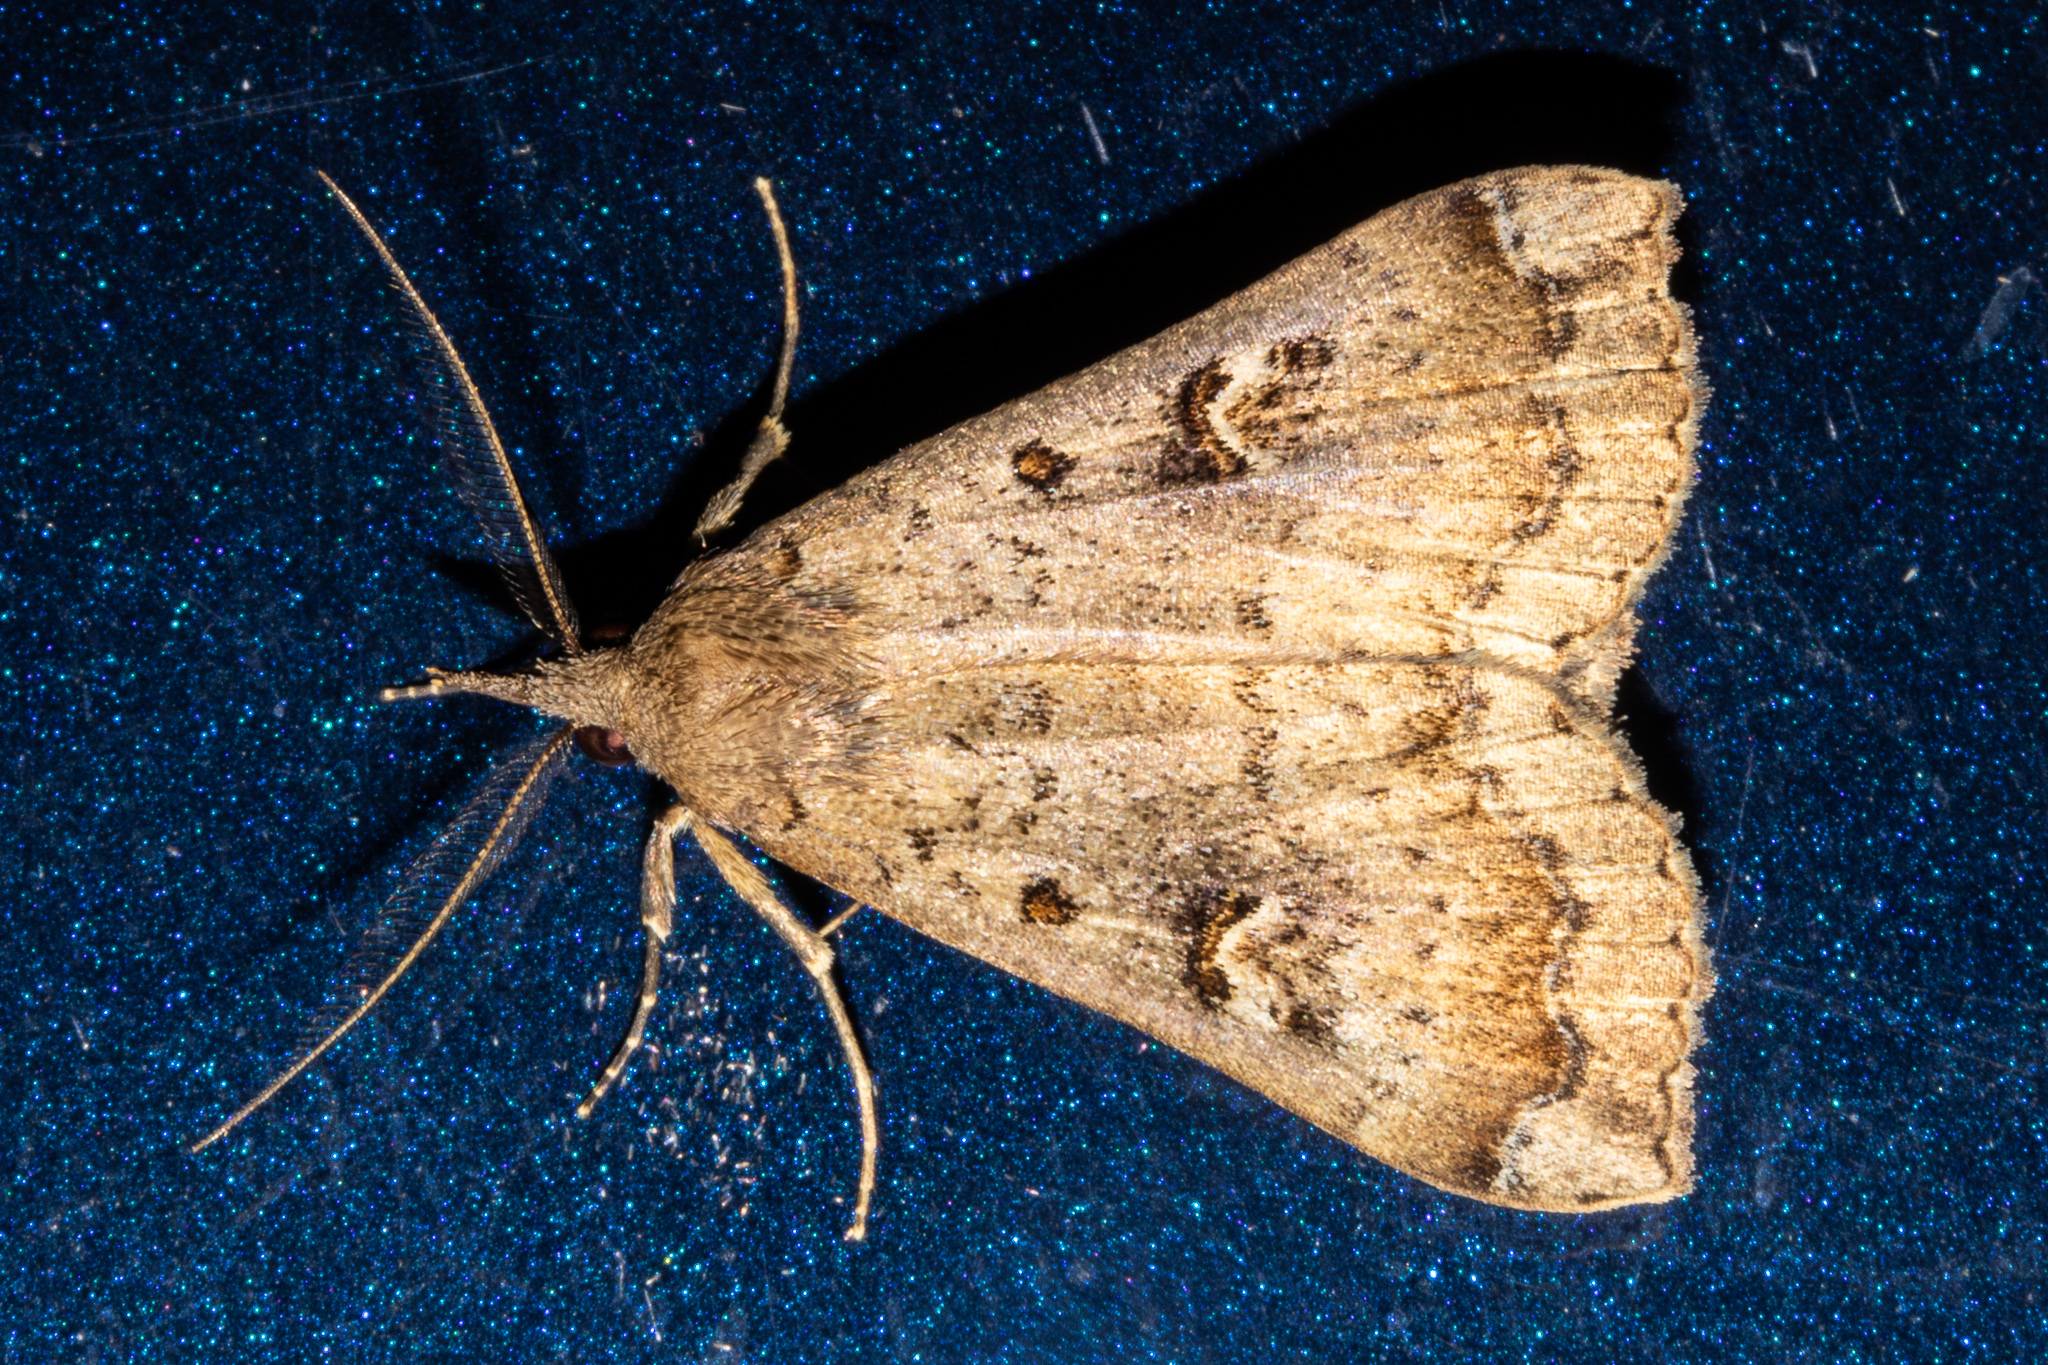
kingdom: Animalia
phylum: Arthropoda
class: Insecta
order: Lepidoptera
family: Erebidae
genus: Rhapsa
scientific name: Rhapsa scotosialis
